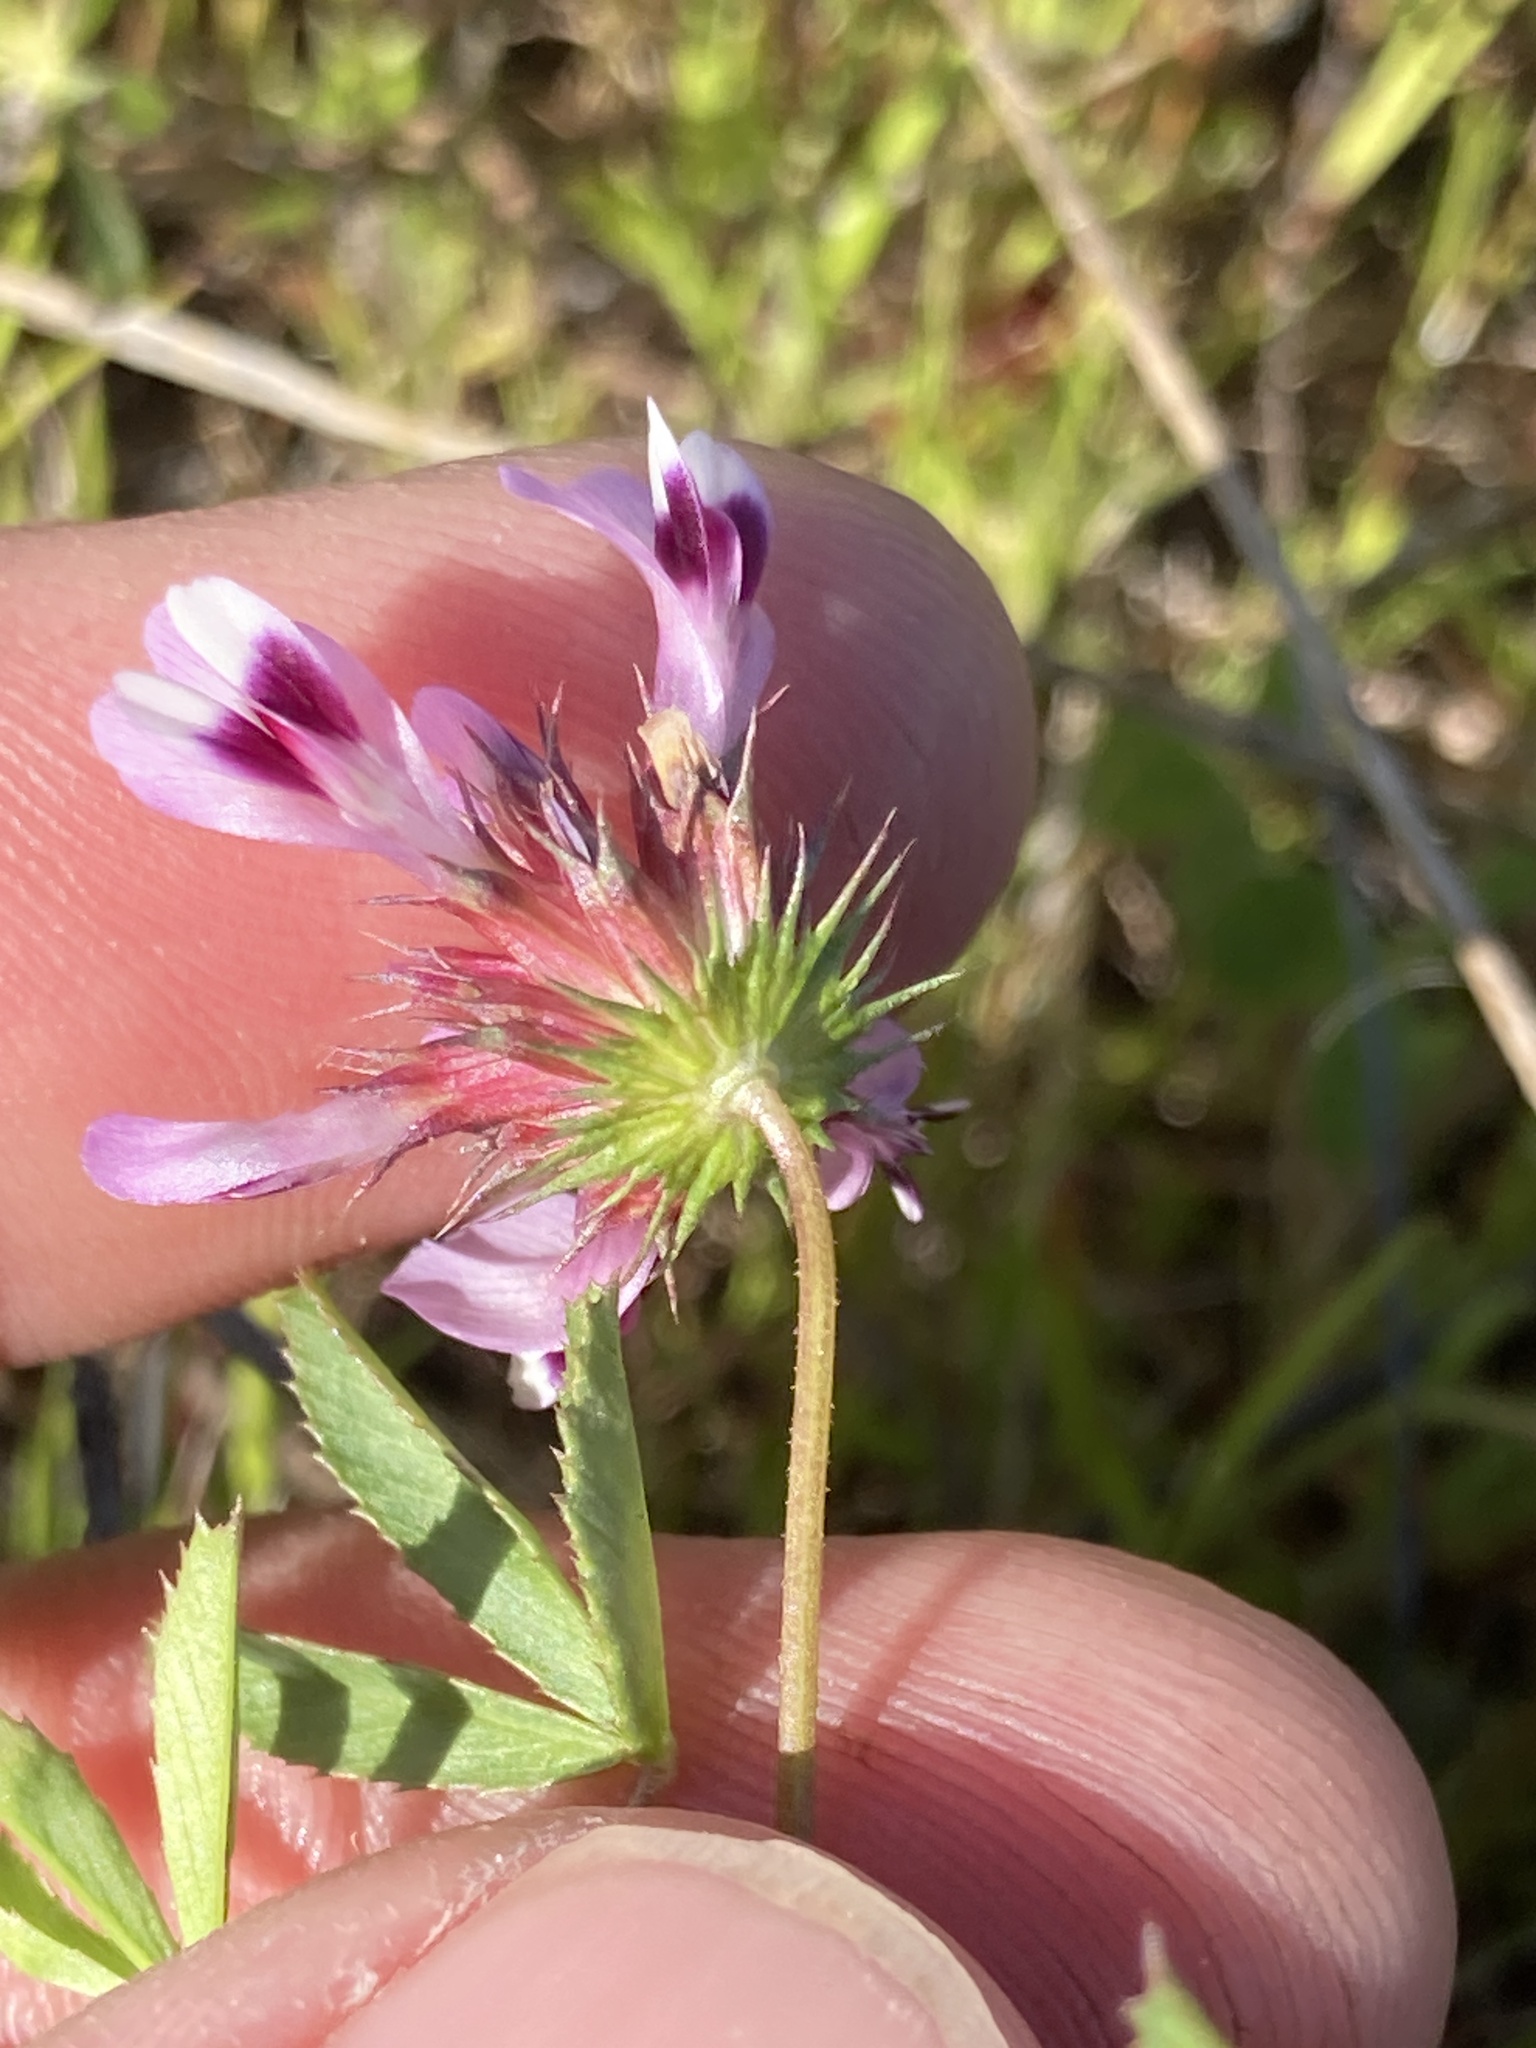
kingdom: Plantae
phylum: Tracheophyta
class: Magnoliopsida
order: Fabales
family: Fabaceae
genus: Trifolium
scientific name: Trifolium willdenovii
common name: Tomcat clover
